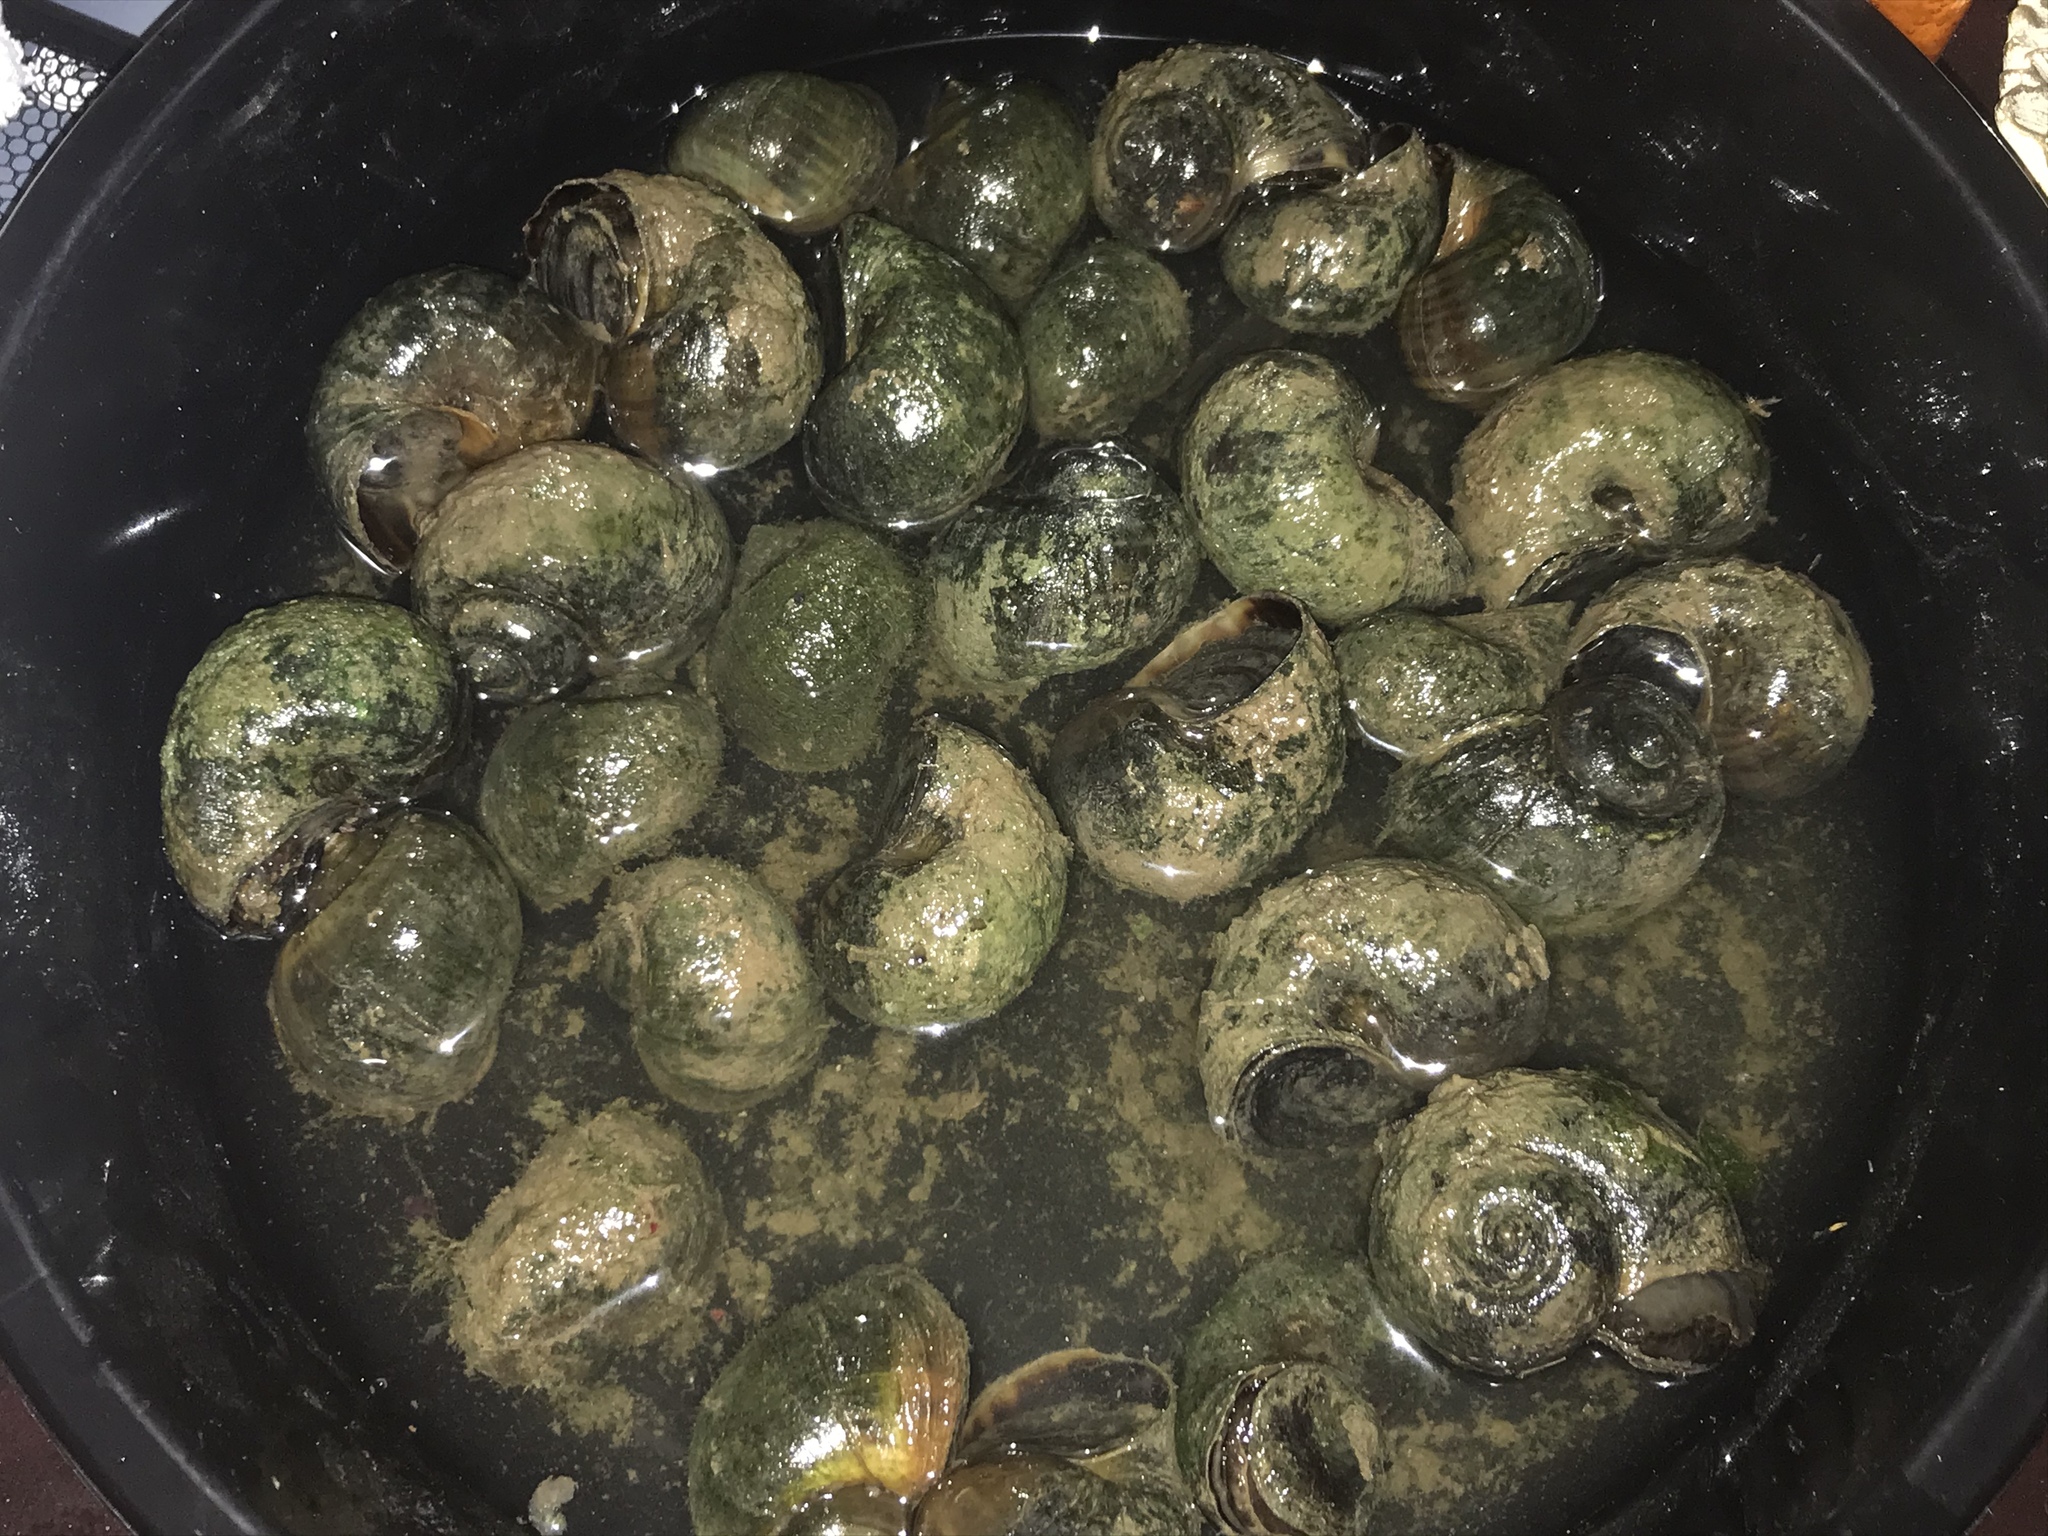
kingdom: Animalia
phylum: Mollusca
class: Gastropoda
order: Architaenioglossa
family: Ampullariidae
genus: Pomacea
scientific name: Pomacea canaliculata
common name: Channeled applesnail
